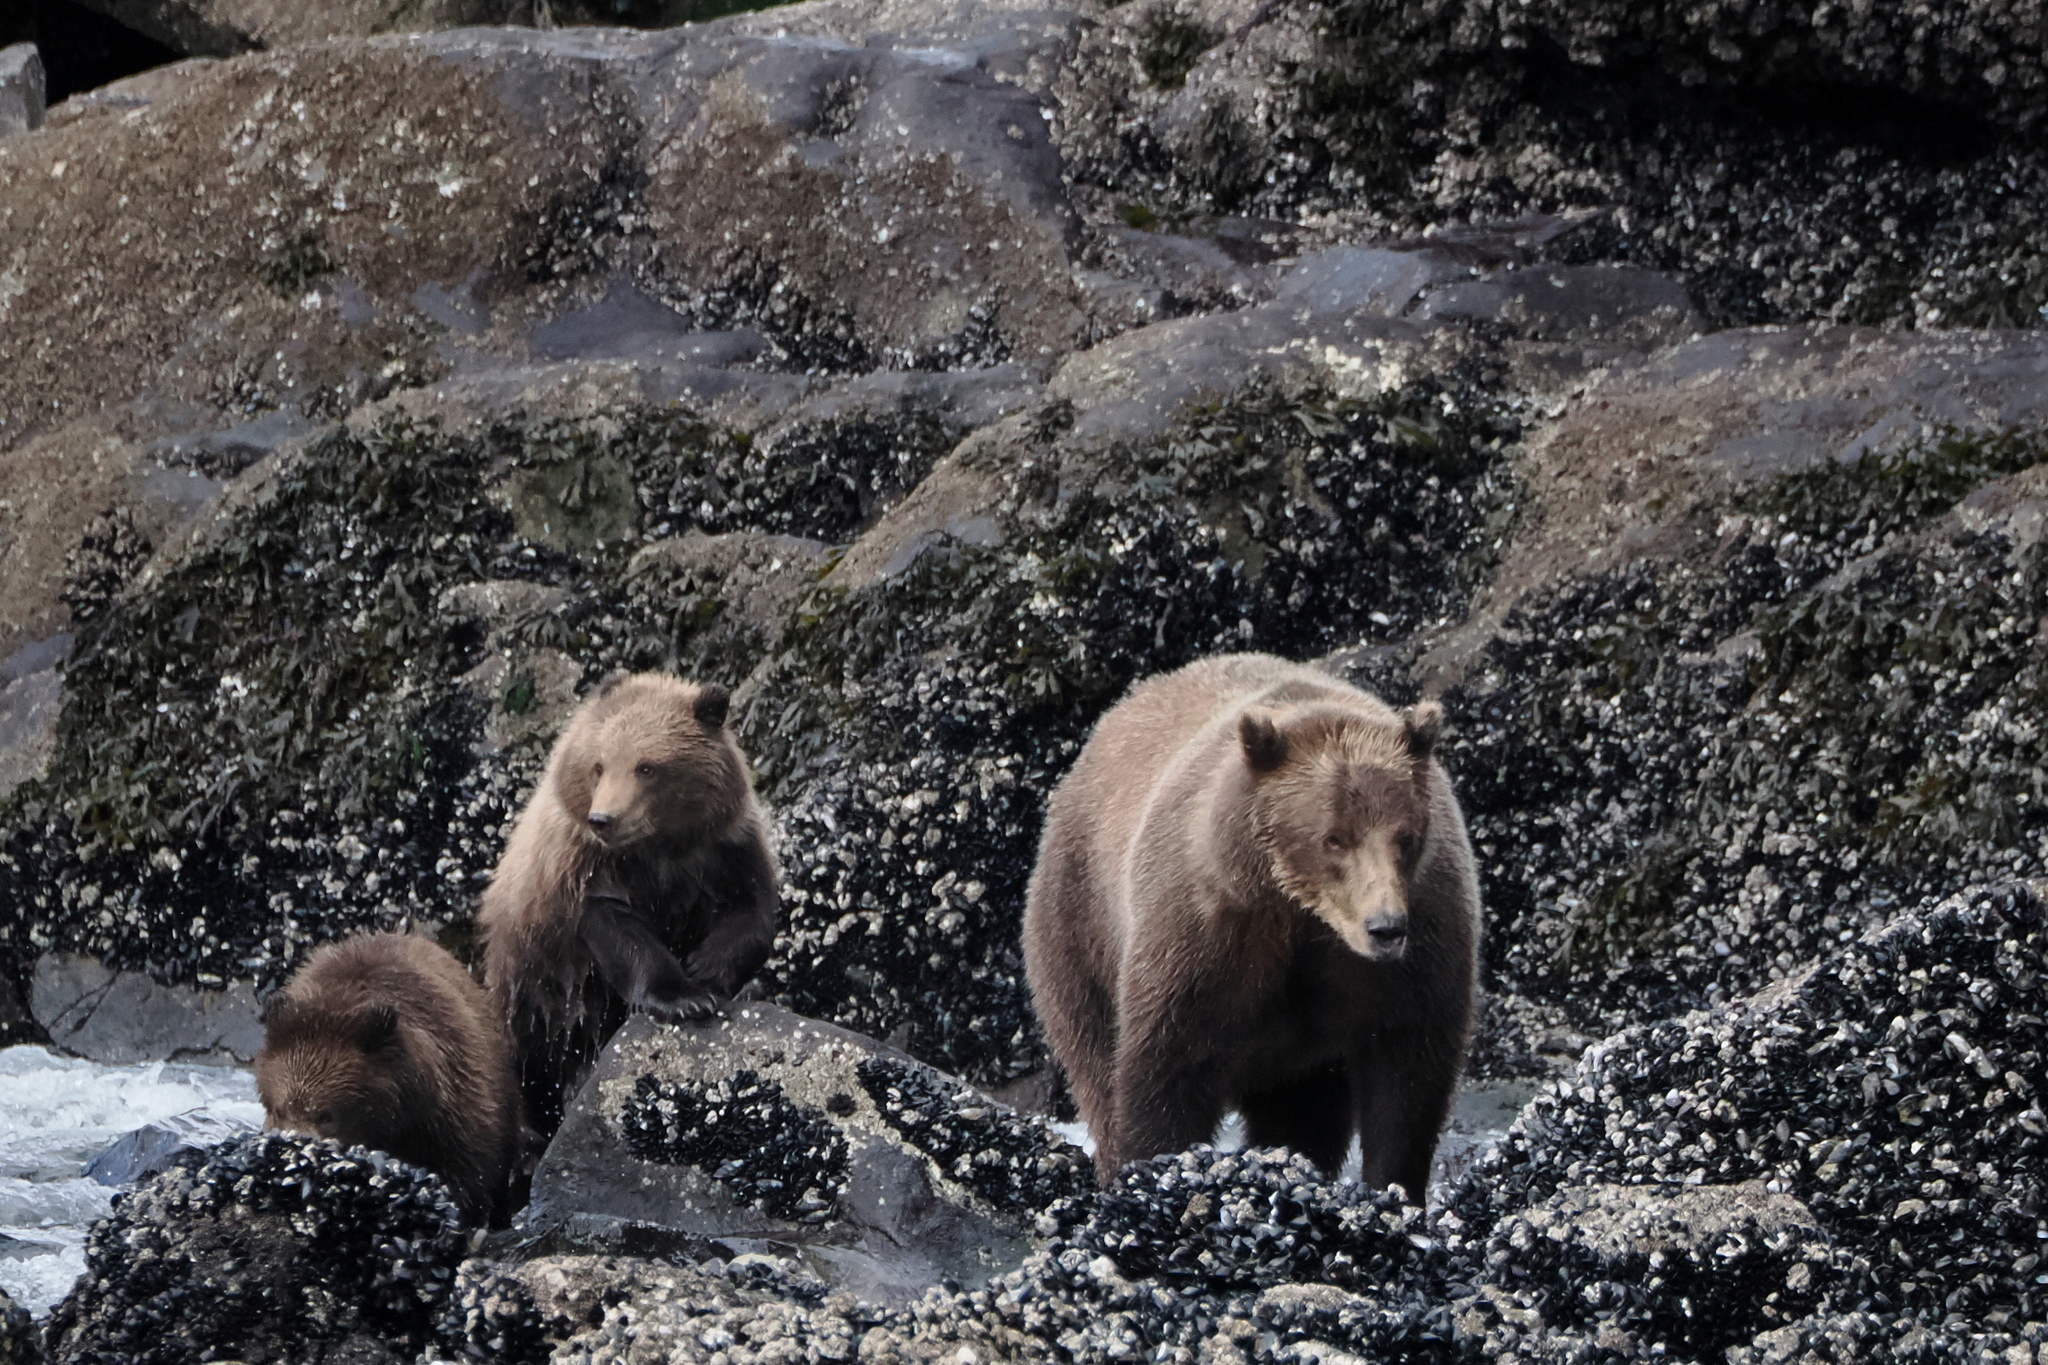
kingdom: Animalia
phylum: Chordata
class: Mammalia
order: Carnivora
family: Ursidae
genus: Ursus
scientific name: Ursus arctos
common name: Brown bear
